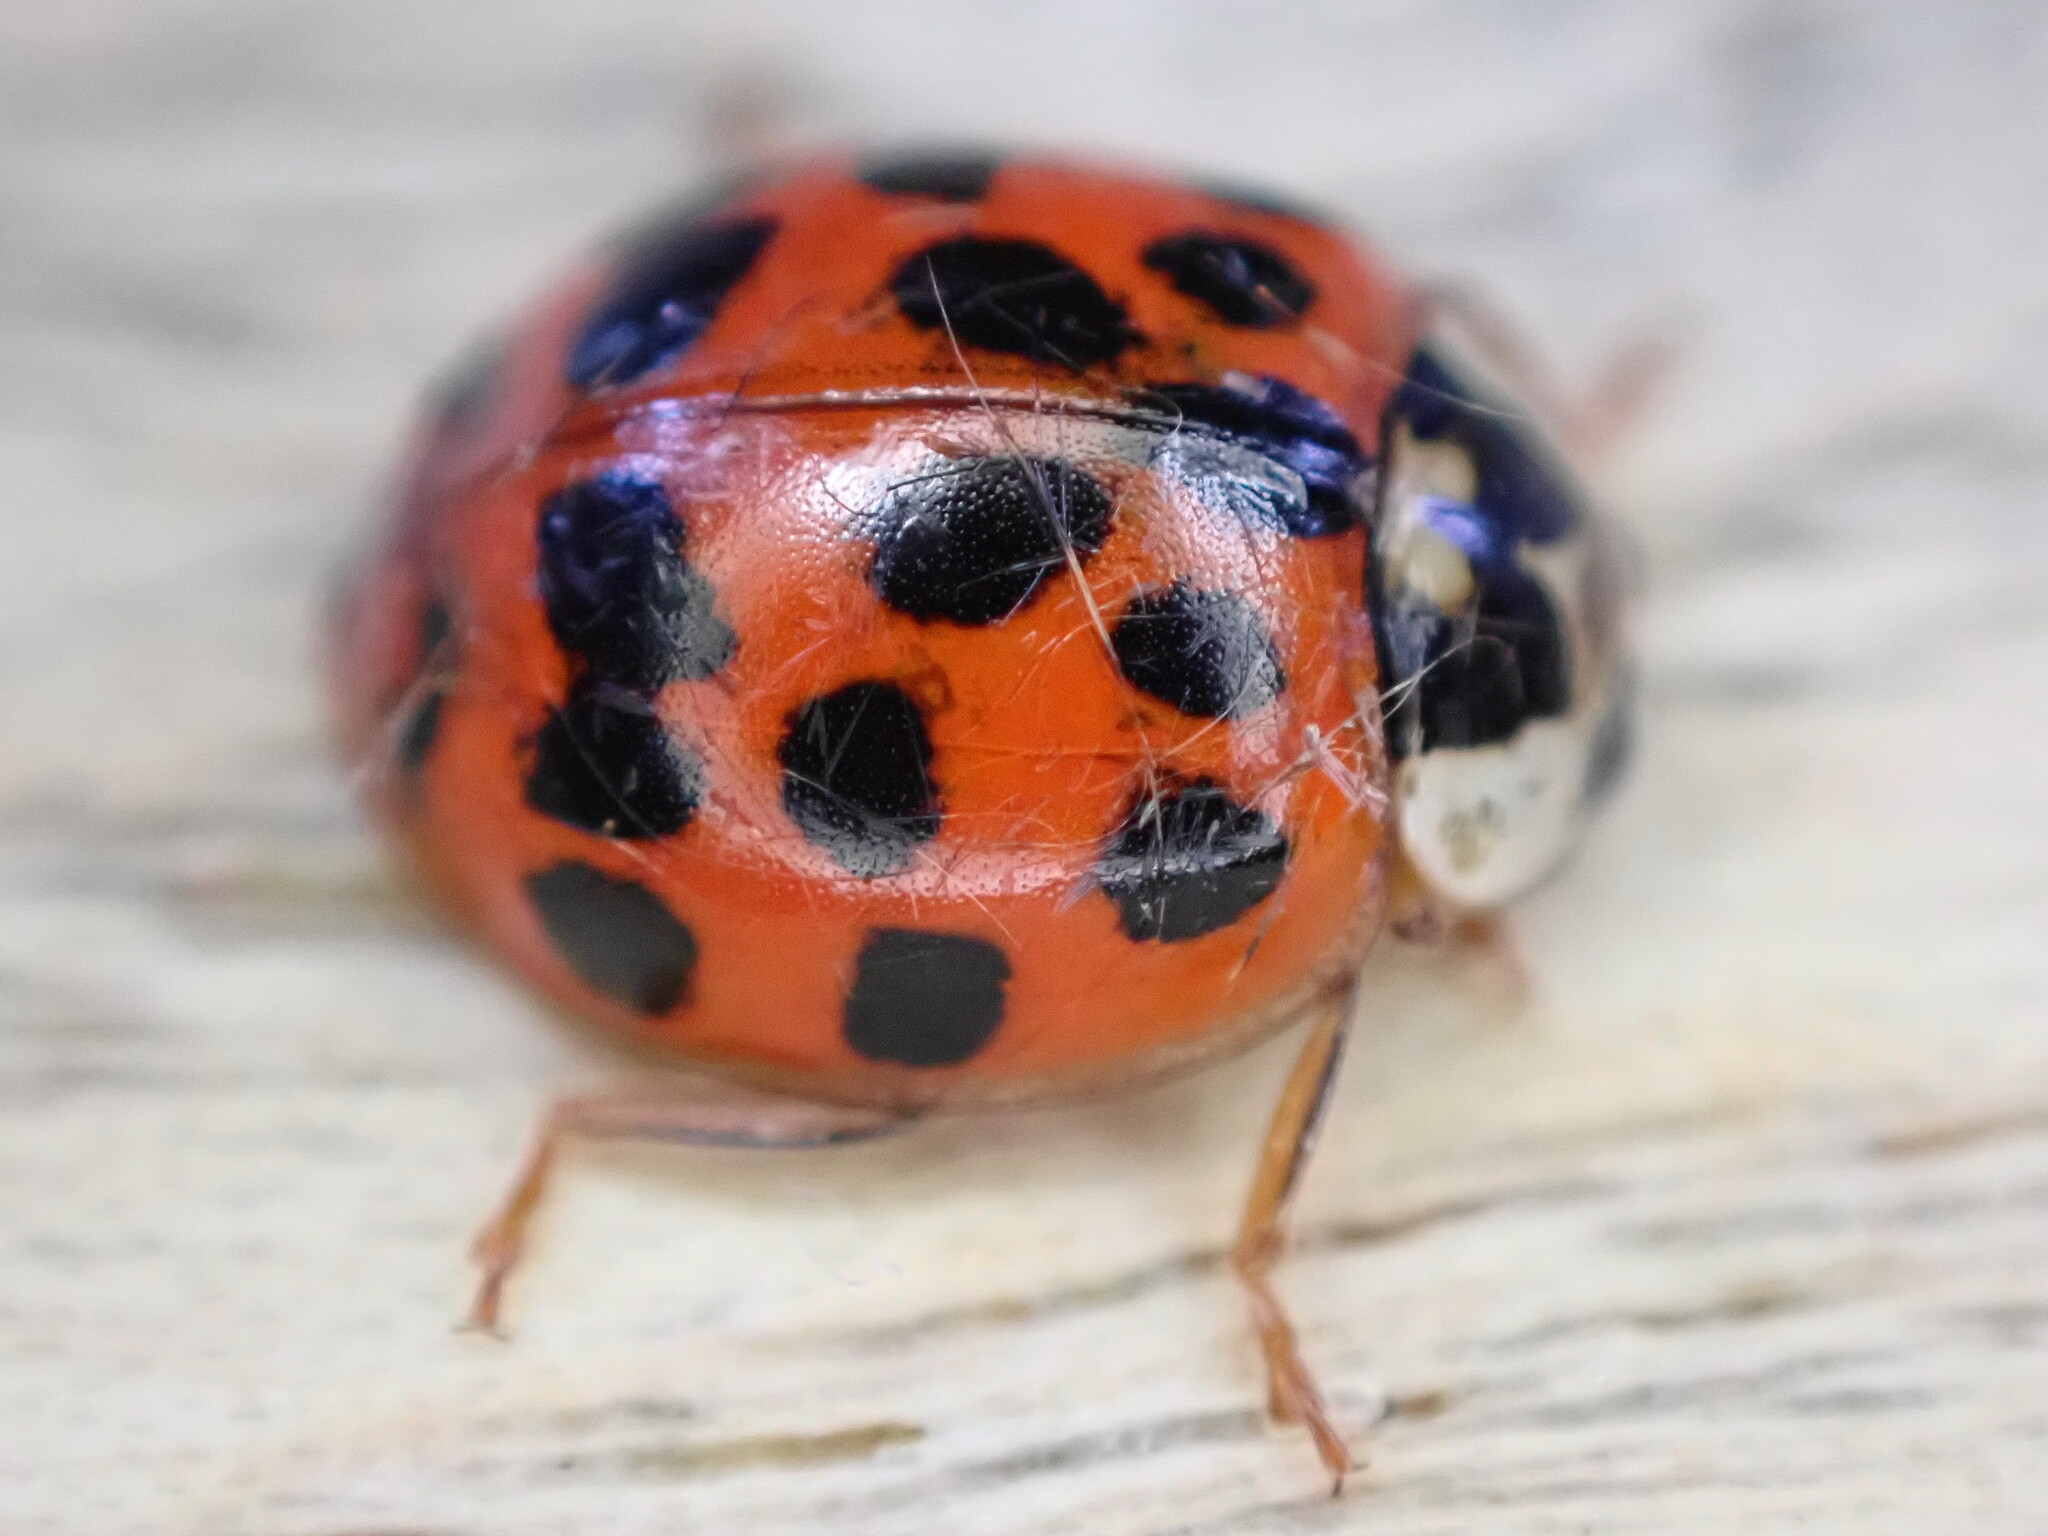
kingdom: Animalia
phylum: Arthropoda
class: Insecta
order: Coleoptera
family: Coccinellidae
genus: Harmonia
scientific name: Harmonia axyridis
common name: Harlequin ladybird
